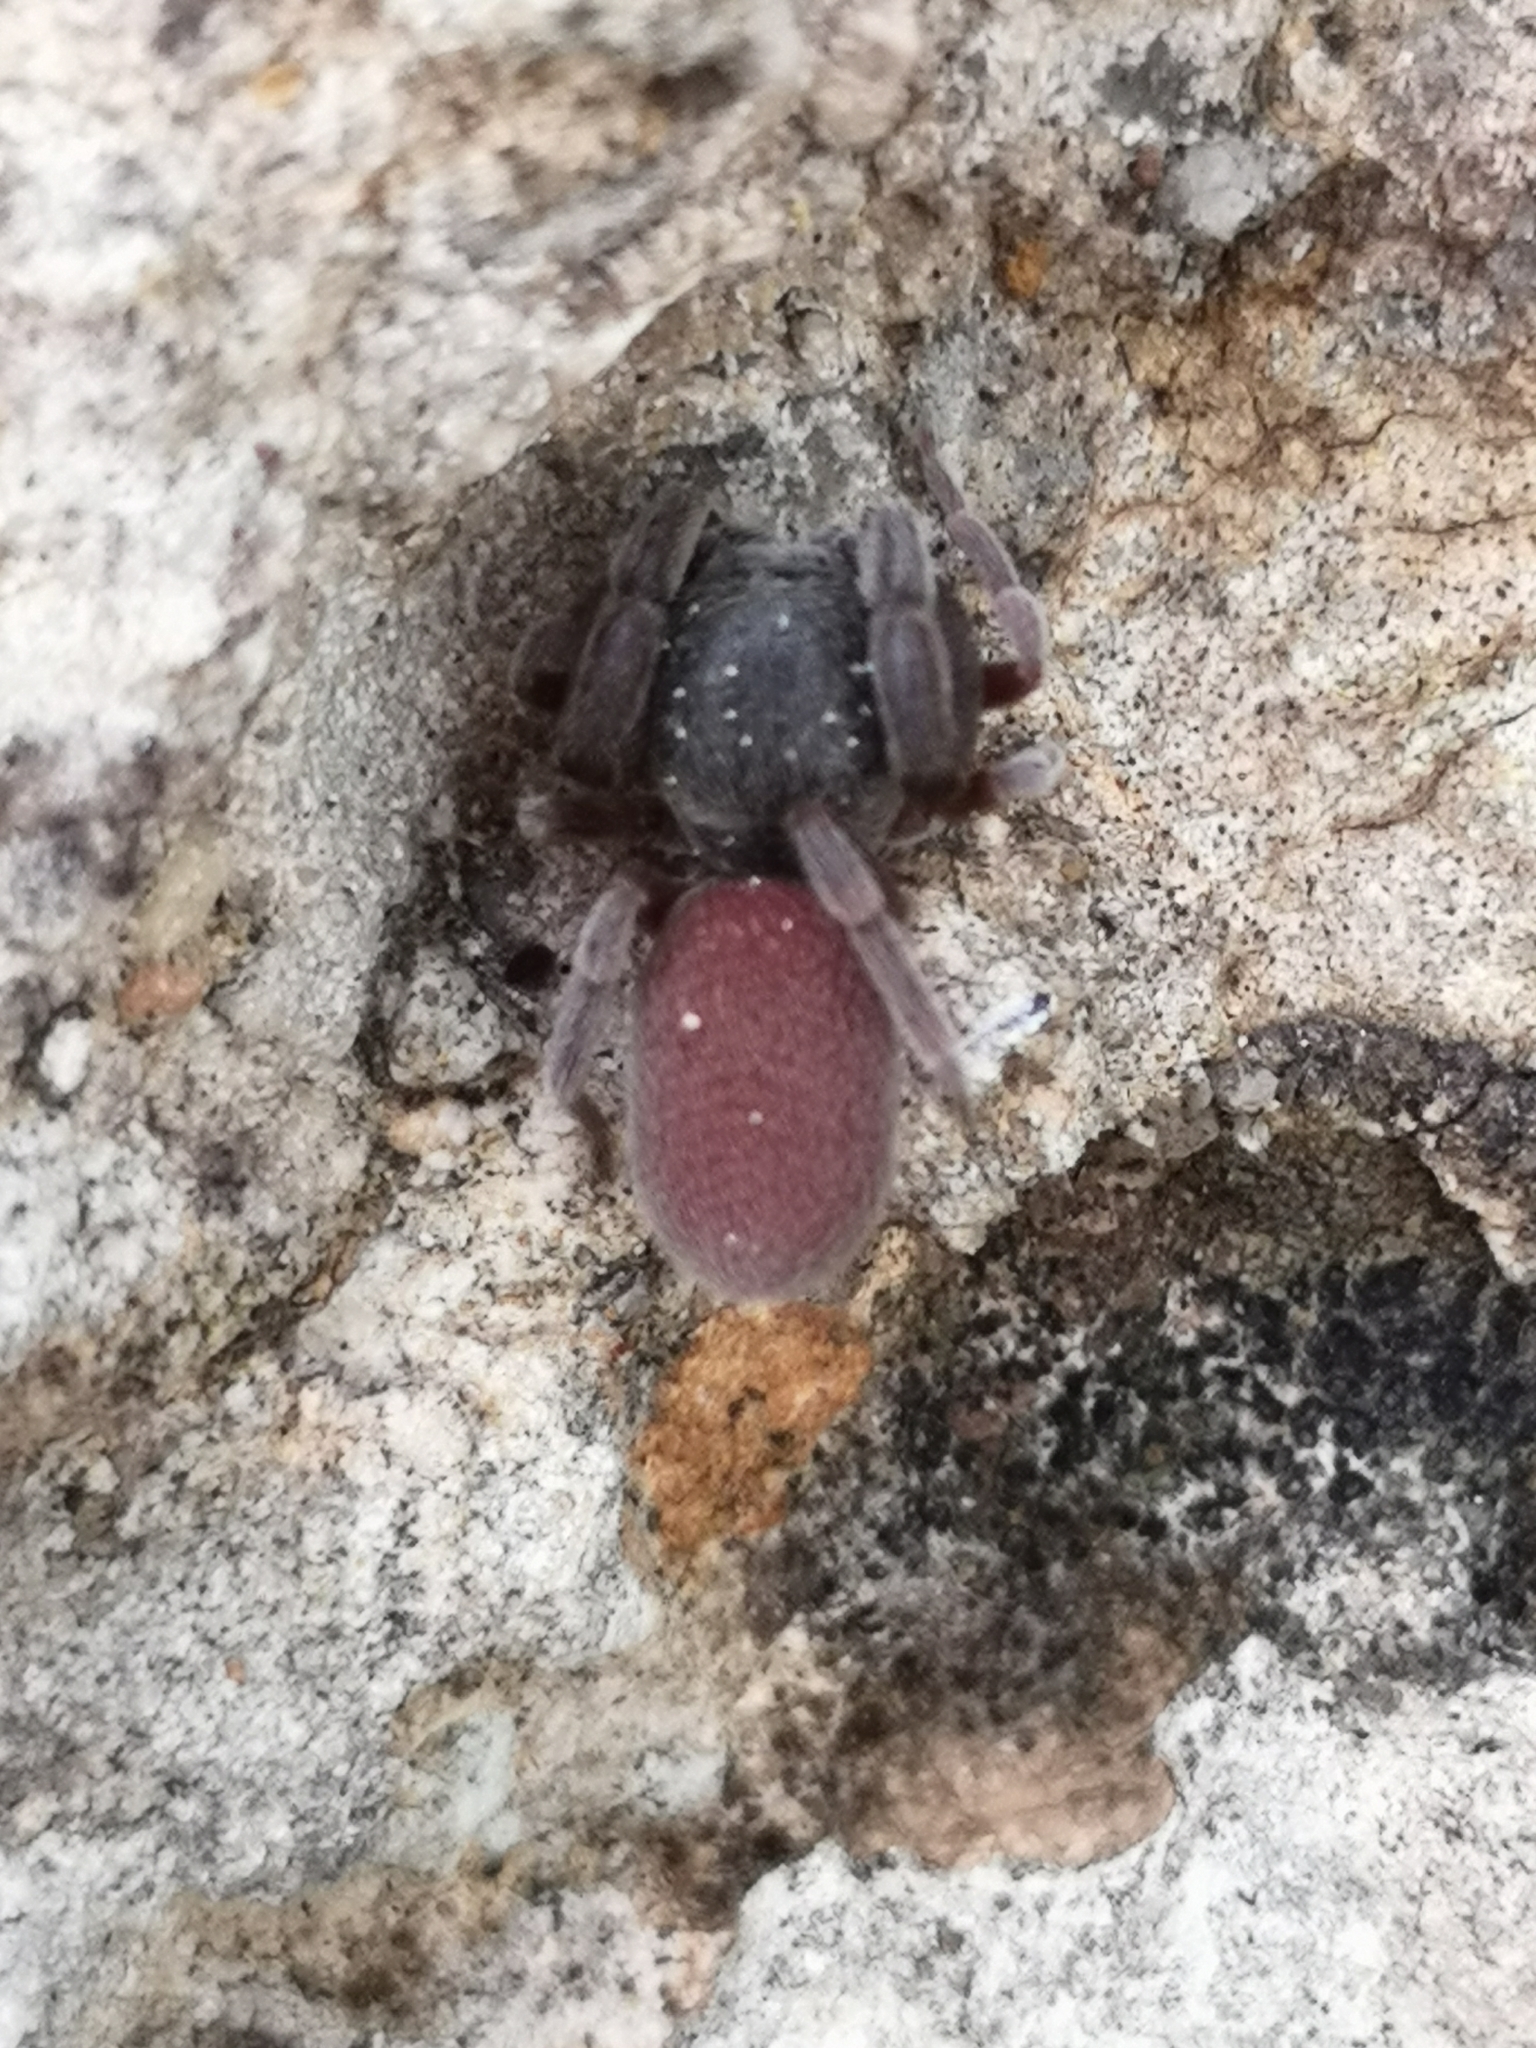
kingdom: Animalia
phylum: Arthropoda
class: Arachnida
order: Araneae
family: Palpimanidae
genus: Palpimanus
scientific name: Palpimanus gibbulus
